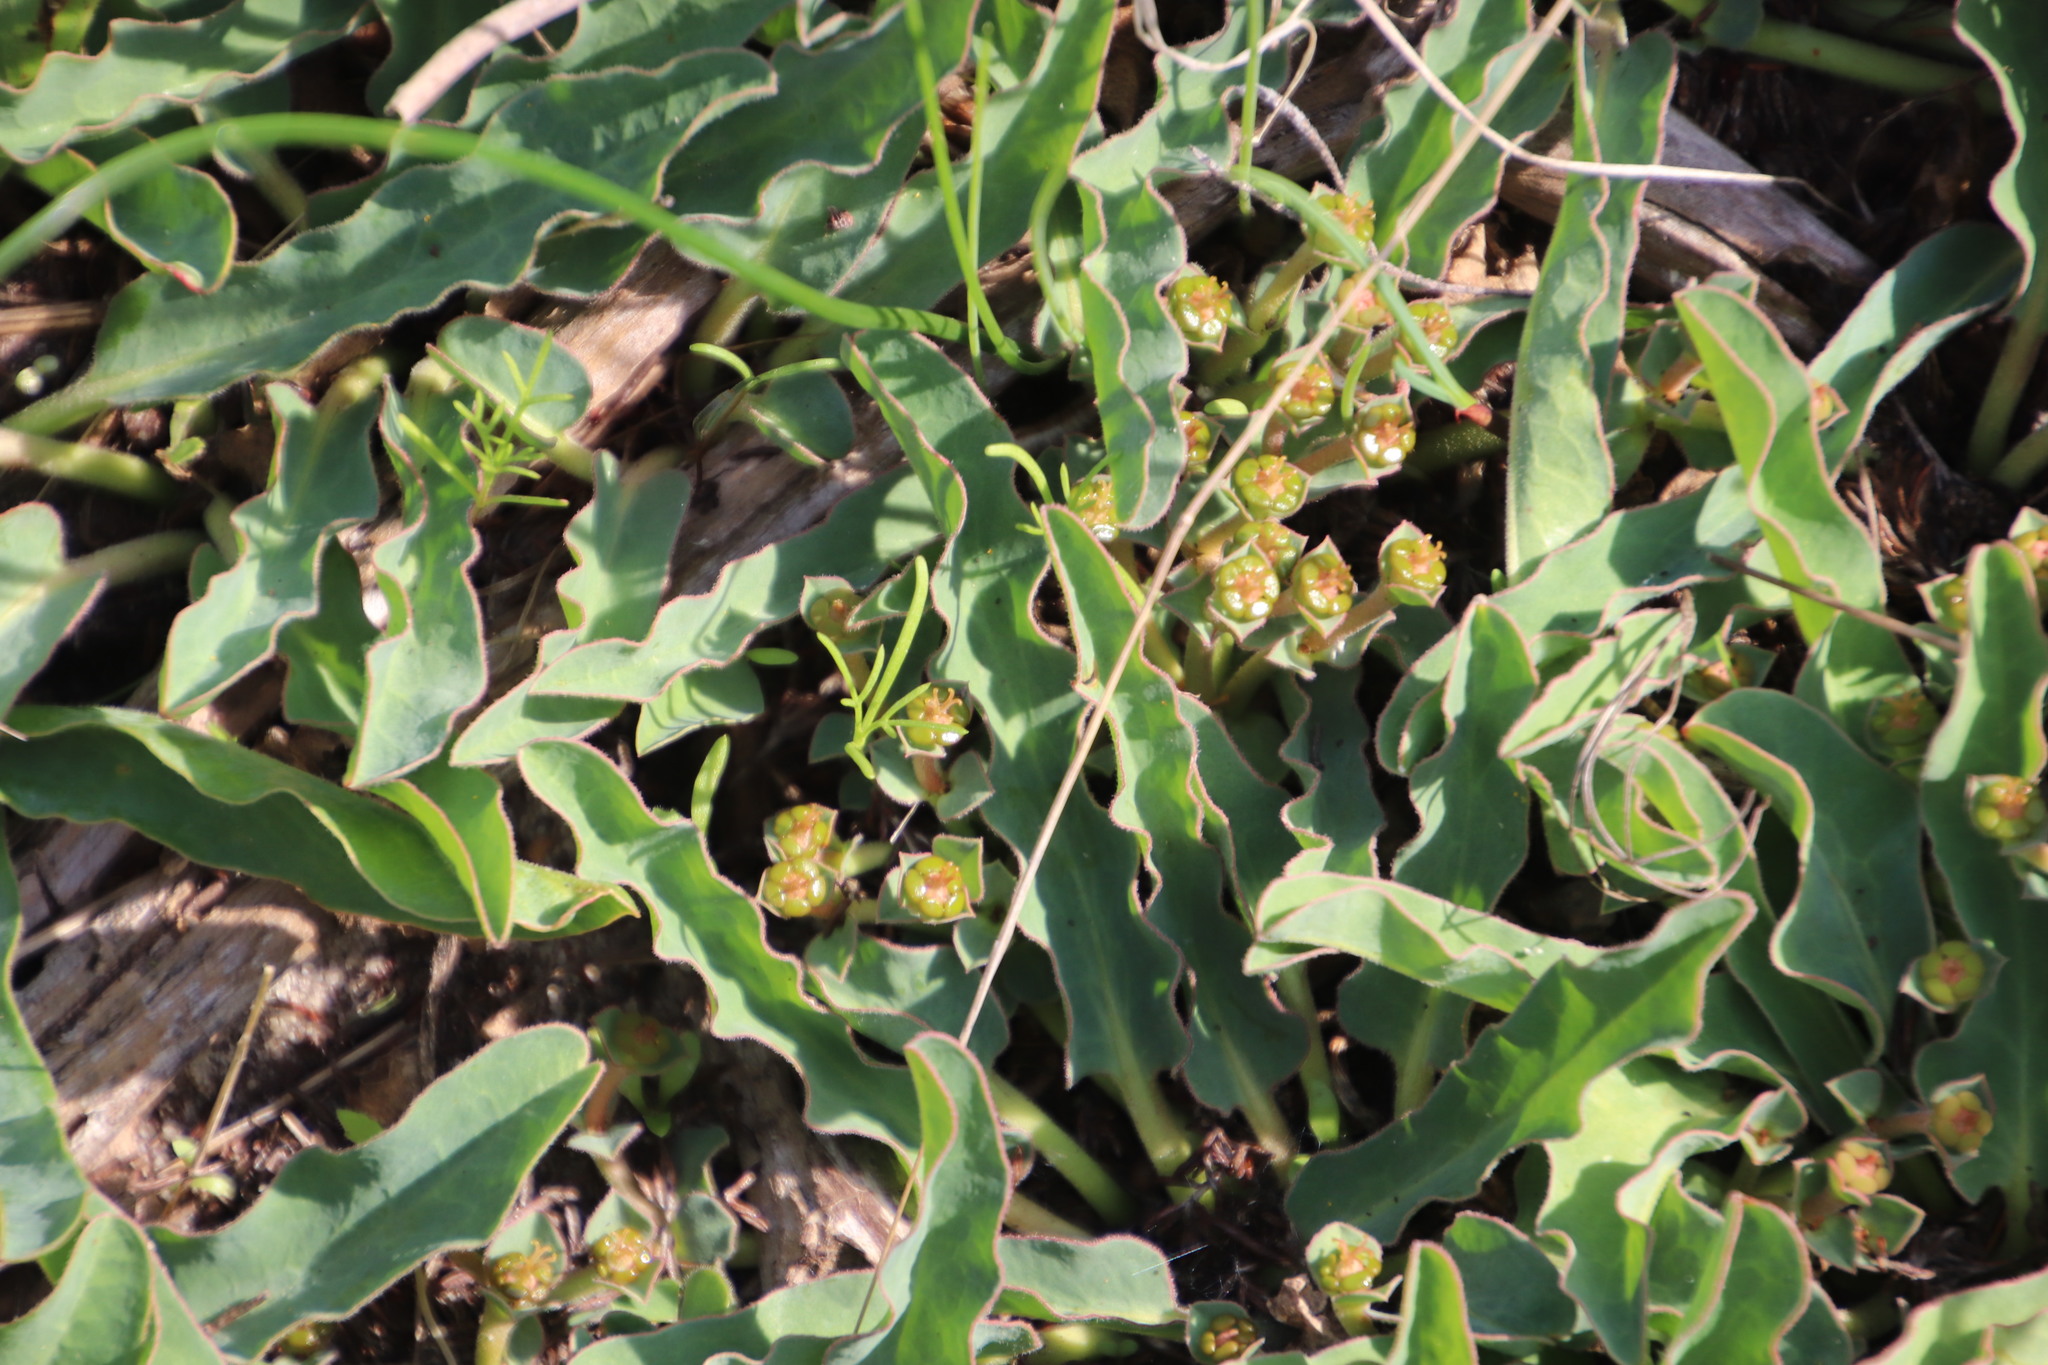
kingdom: Plantae
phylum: Tracheophyta
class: Magnoliopsida
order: Malpighiales
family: Euphorbiaceae
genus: Euphorbia
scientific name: Euphorbia tuberosa
